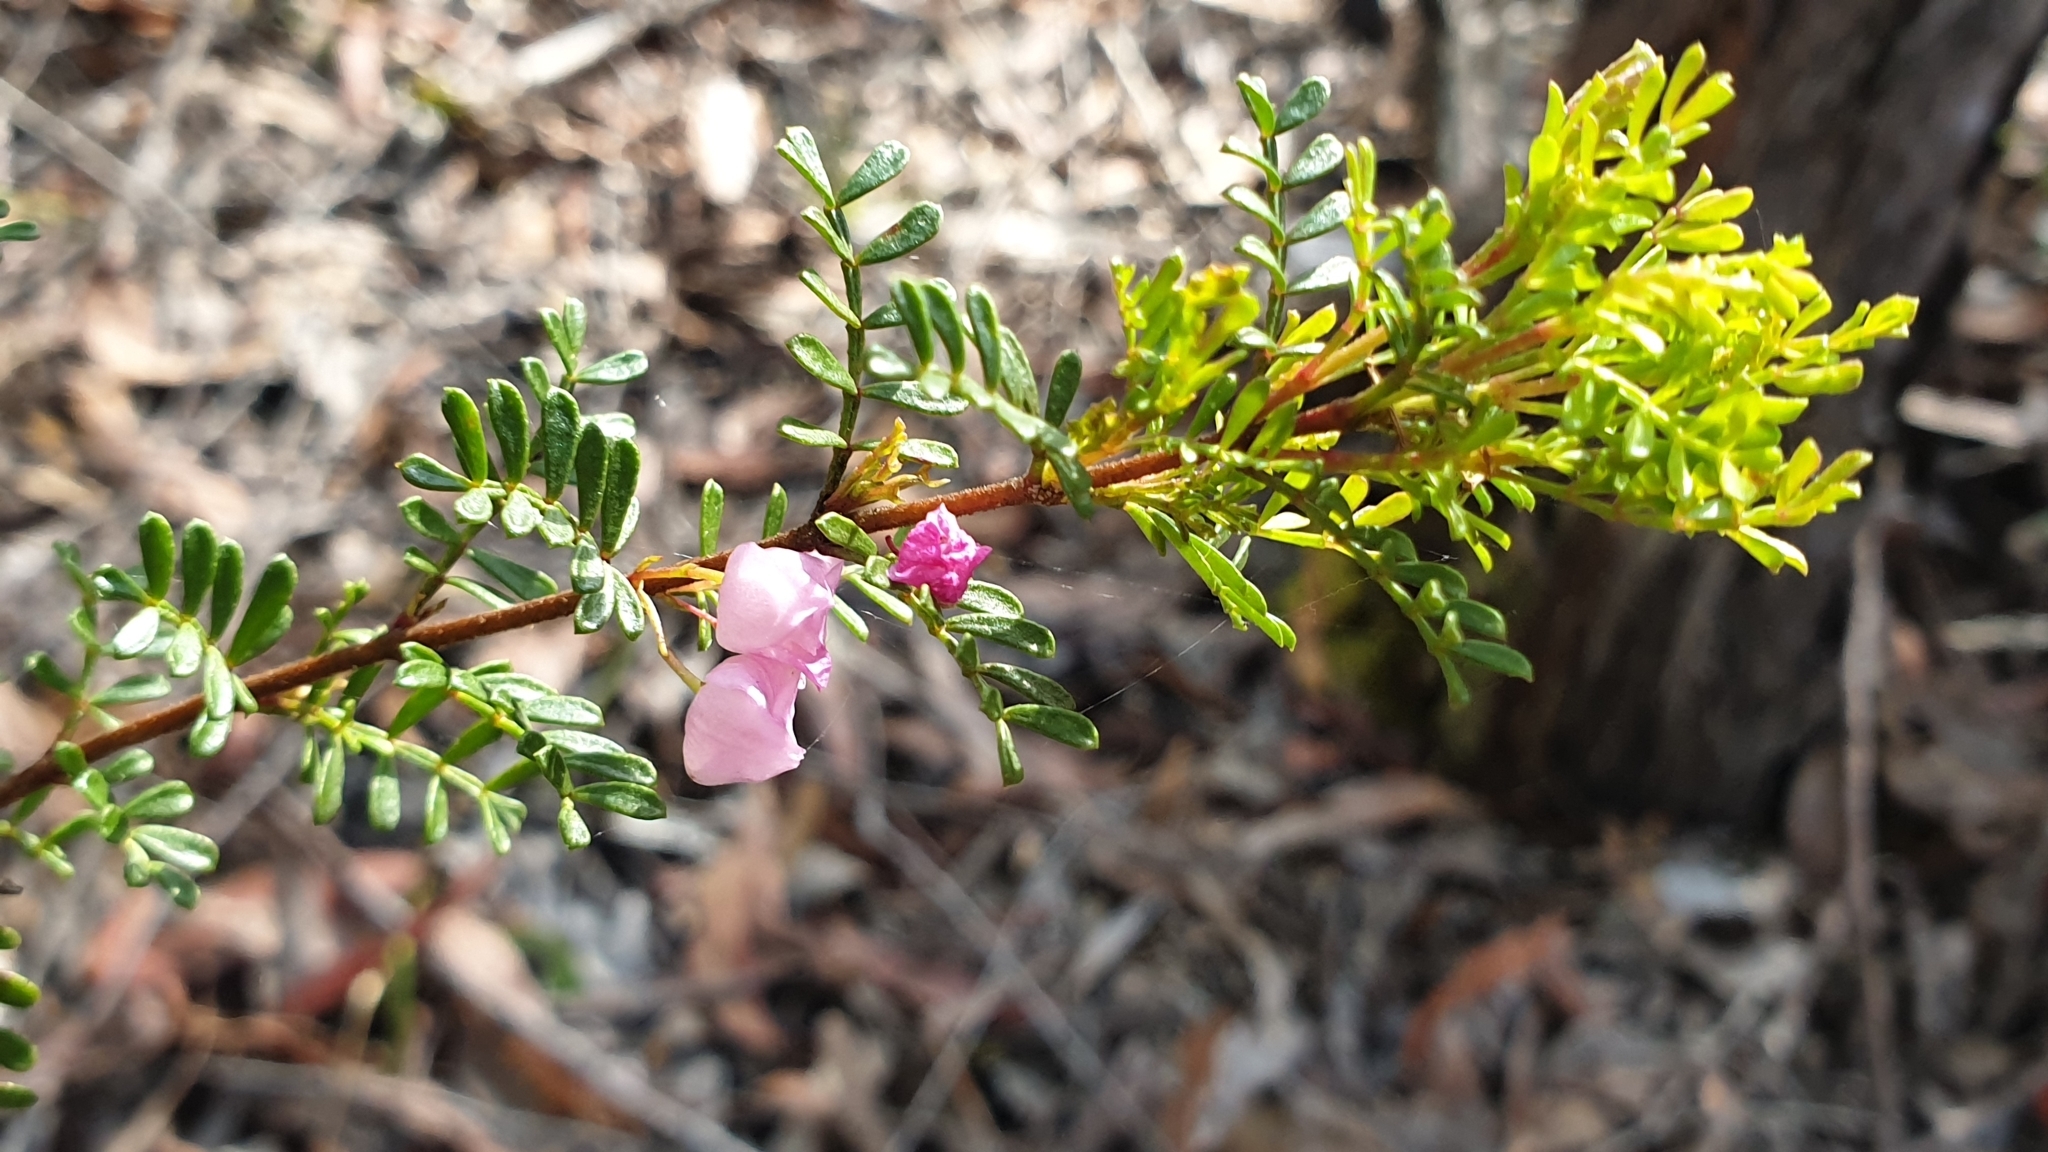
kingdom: Plantae
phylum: Tracheophyta
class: Magnoliopsida
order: Sapindales
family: Rutaceae
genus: Boronia
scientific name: Boronia microphylla
